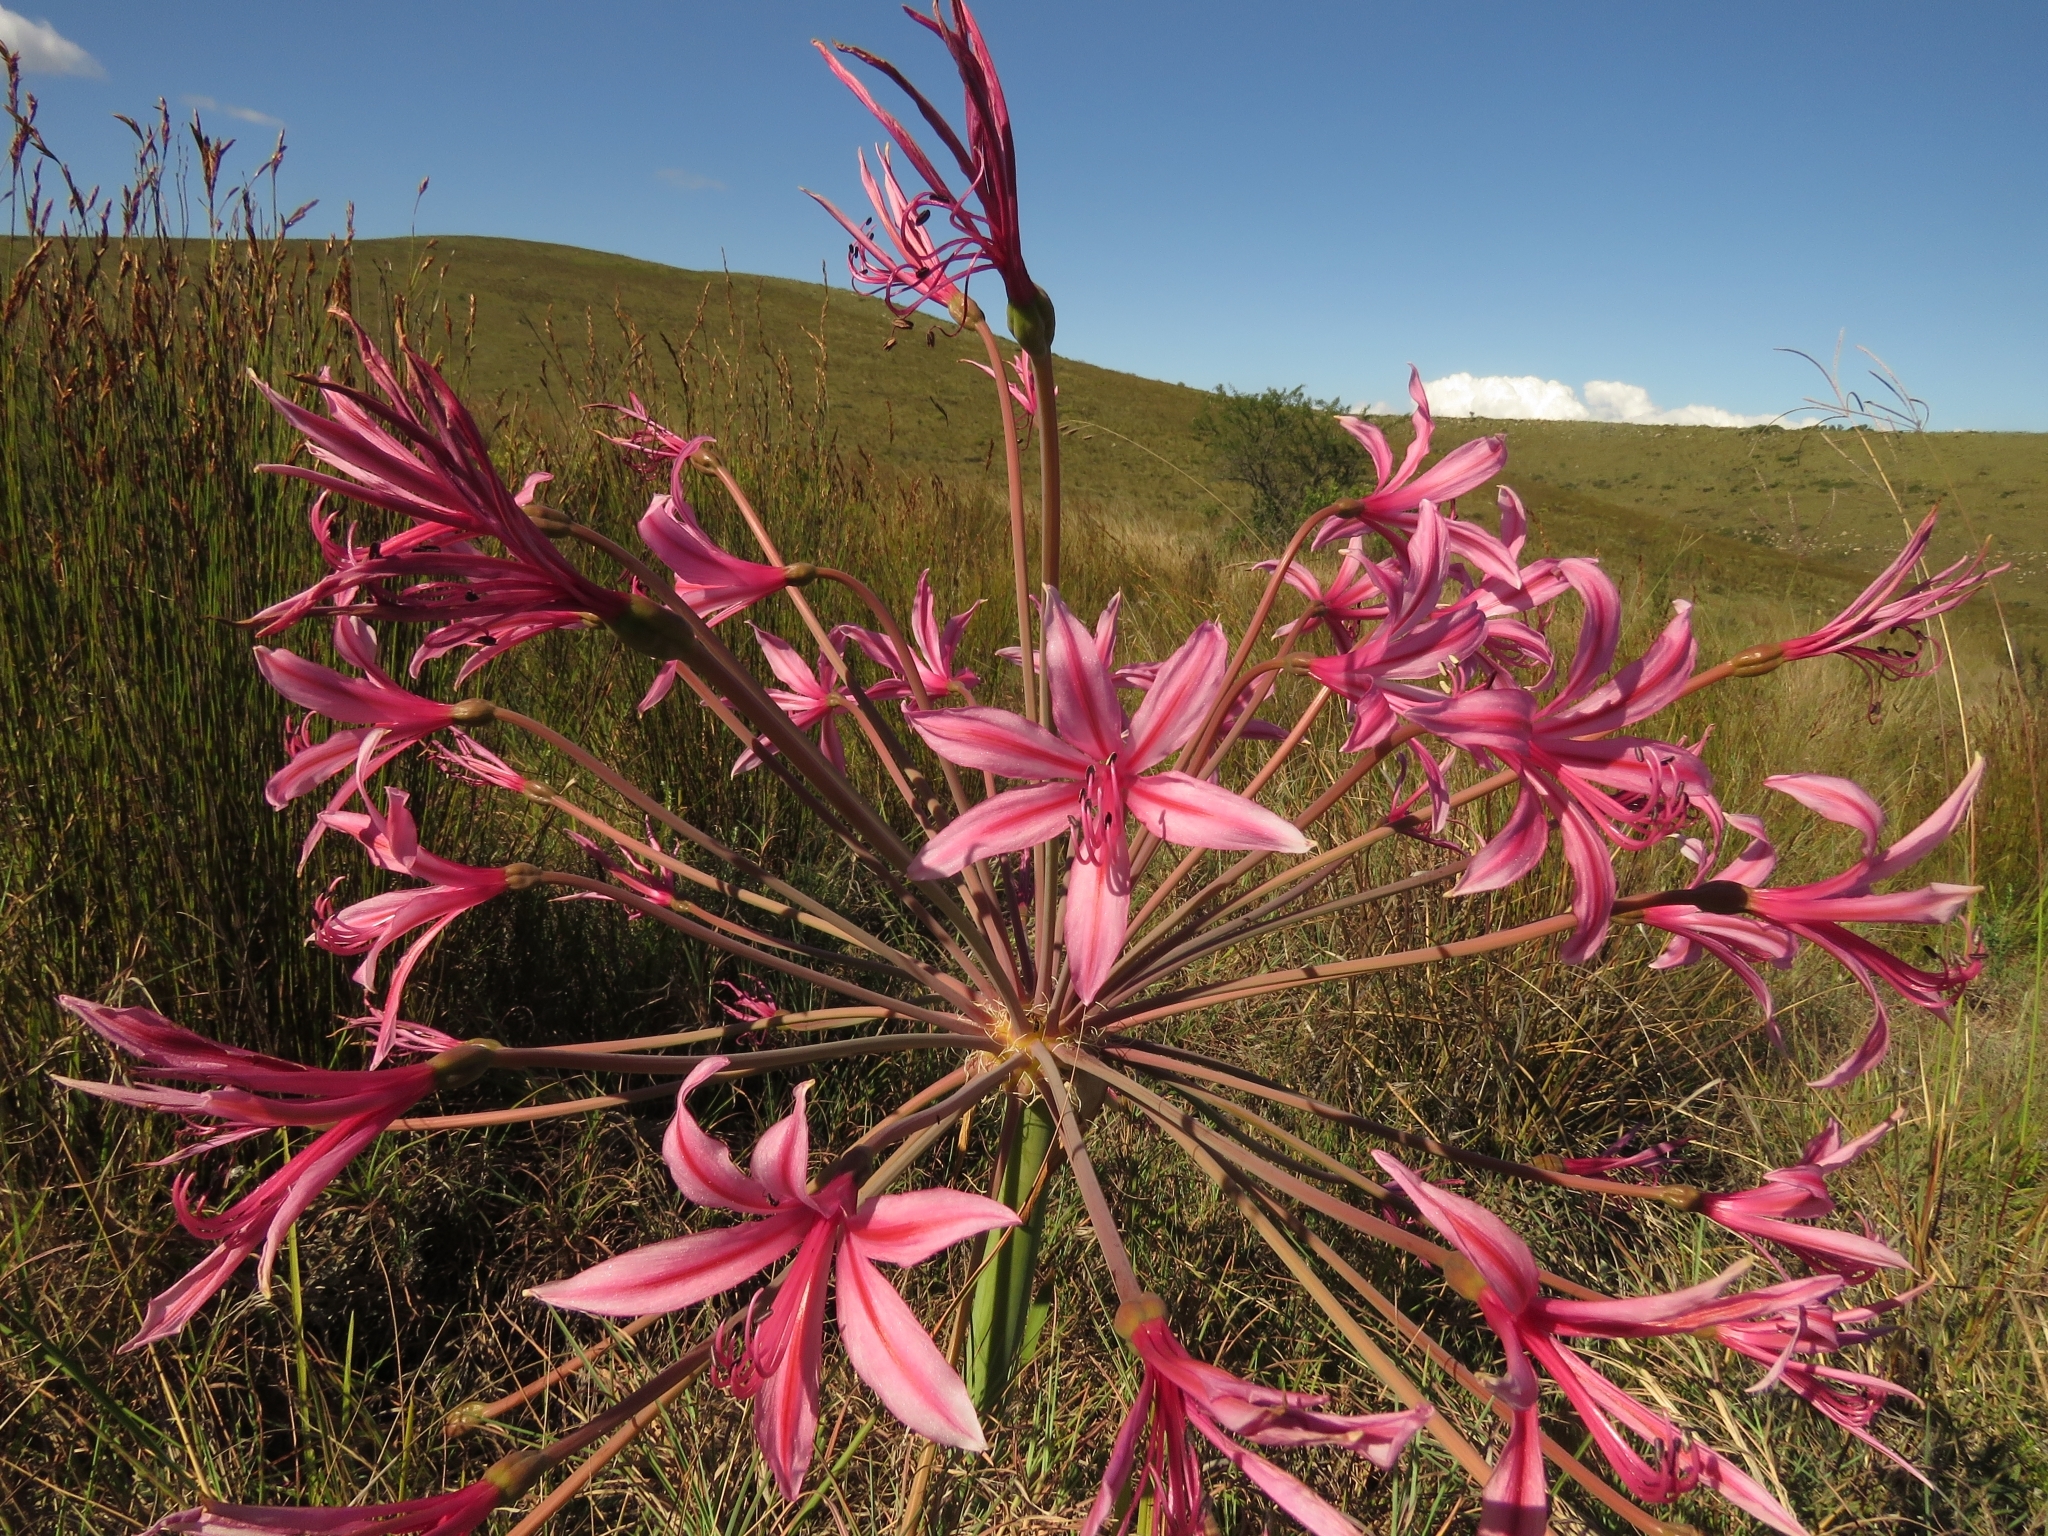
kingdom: Plantae
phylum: Tracheophyta
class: Liliopsida
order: Asparagales
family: Amaryllidaceae
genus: Brunsvigia
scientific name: Brunsvigia grandiflora
